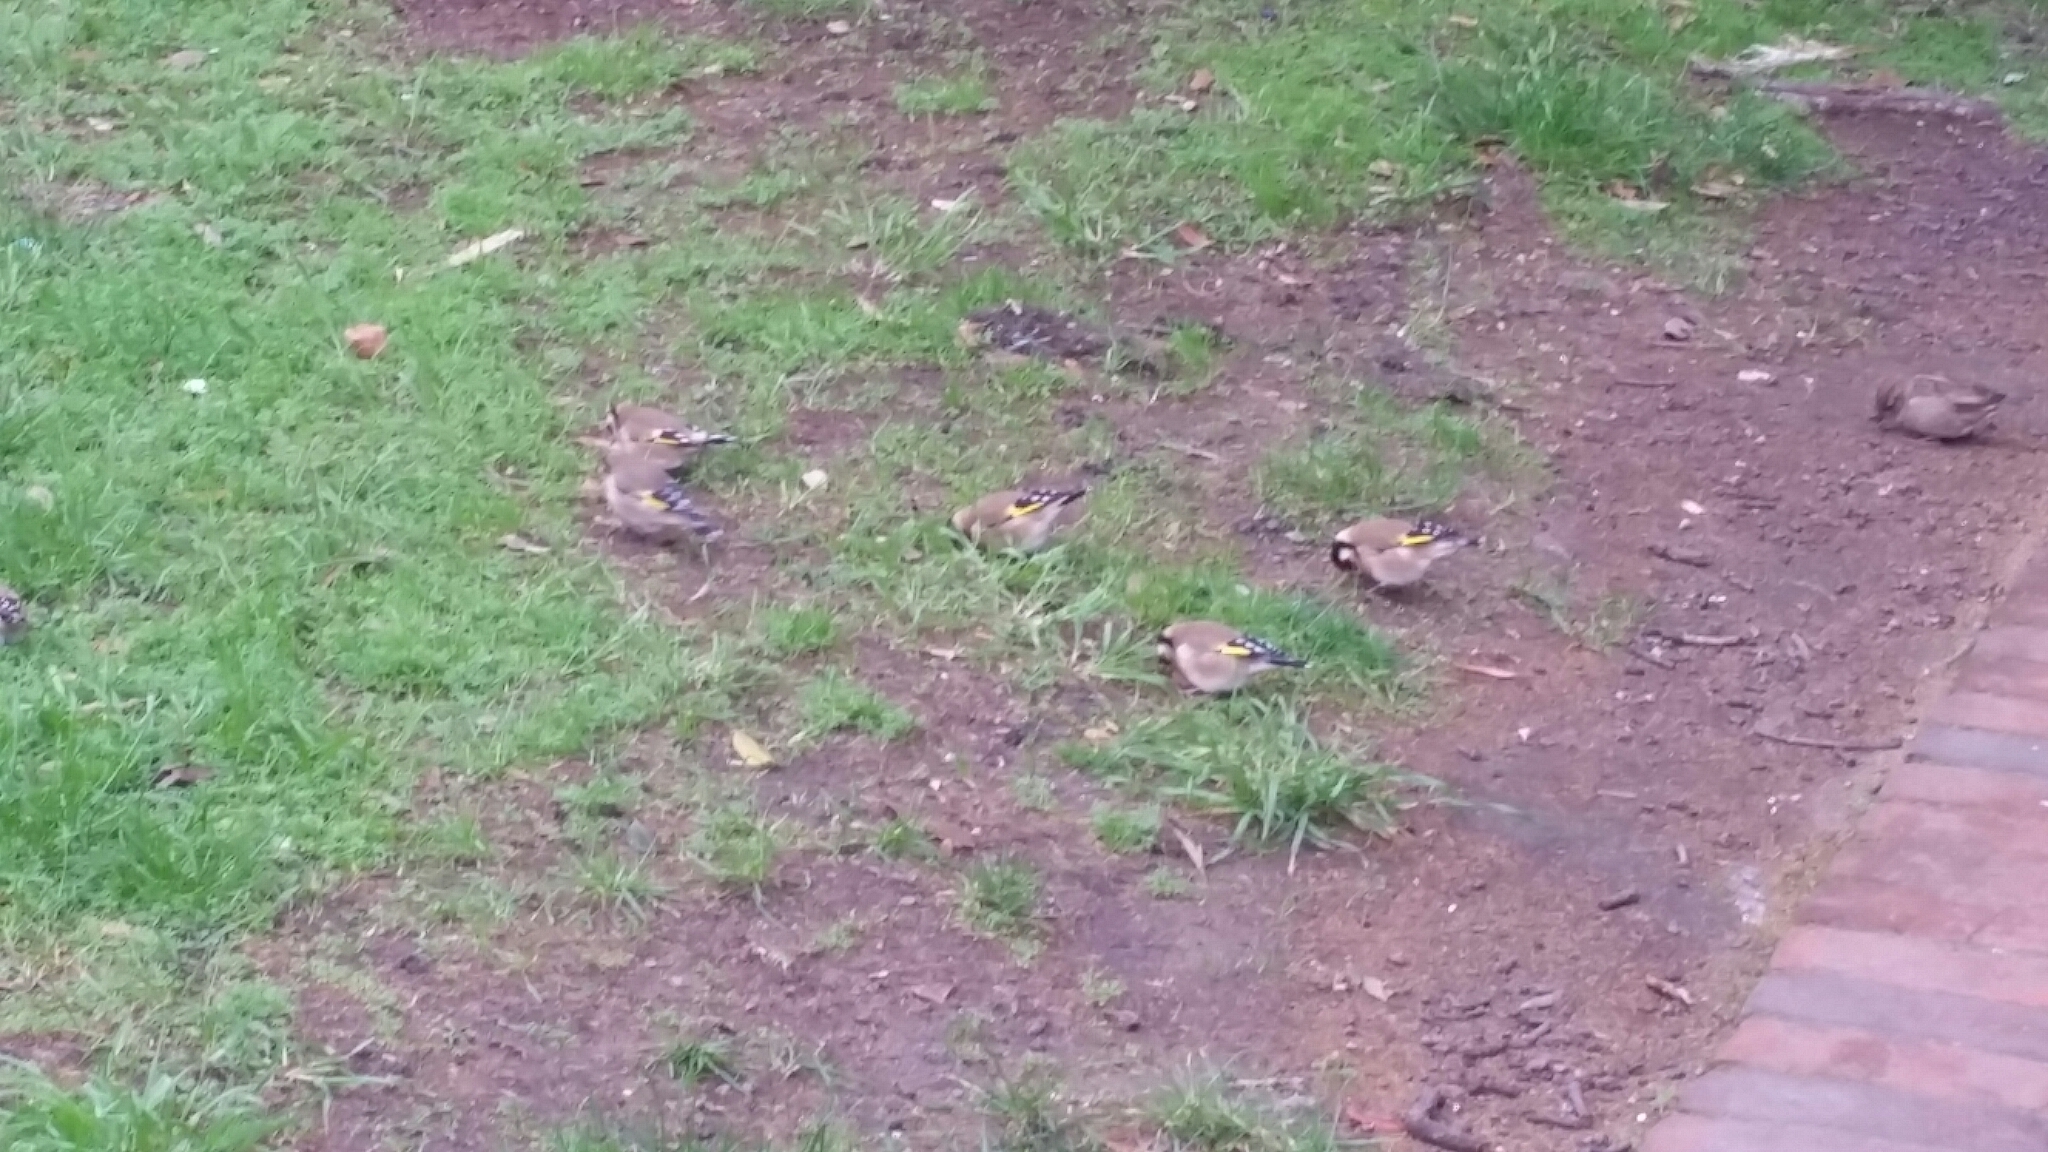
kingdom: Animalia
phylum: Chordata
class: Aves
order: Passeriformes
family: Fringillidae
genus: Carduelis
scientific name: Carduelis carduelis
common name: European goldfinch
